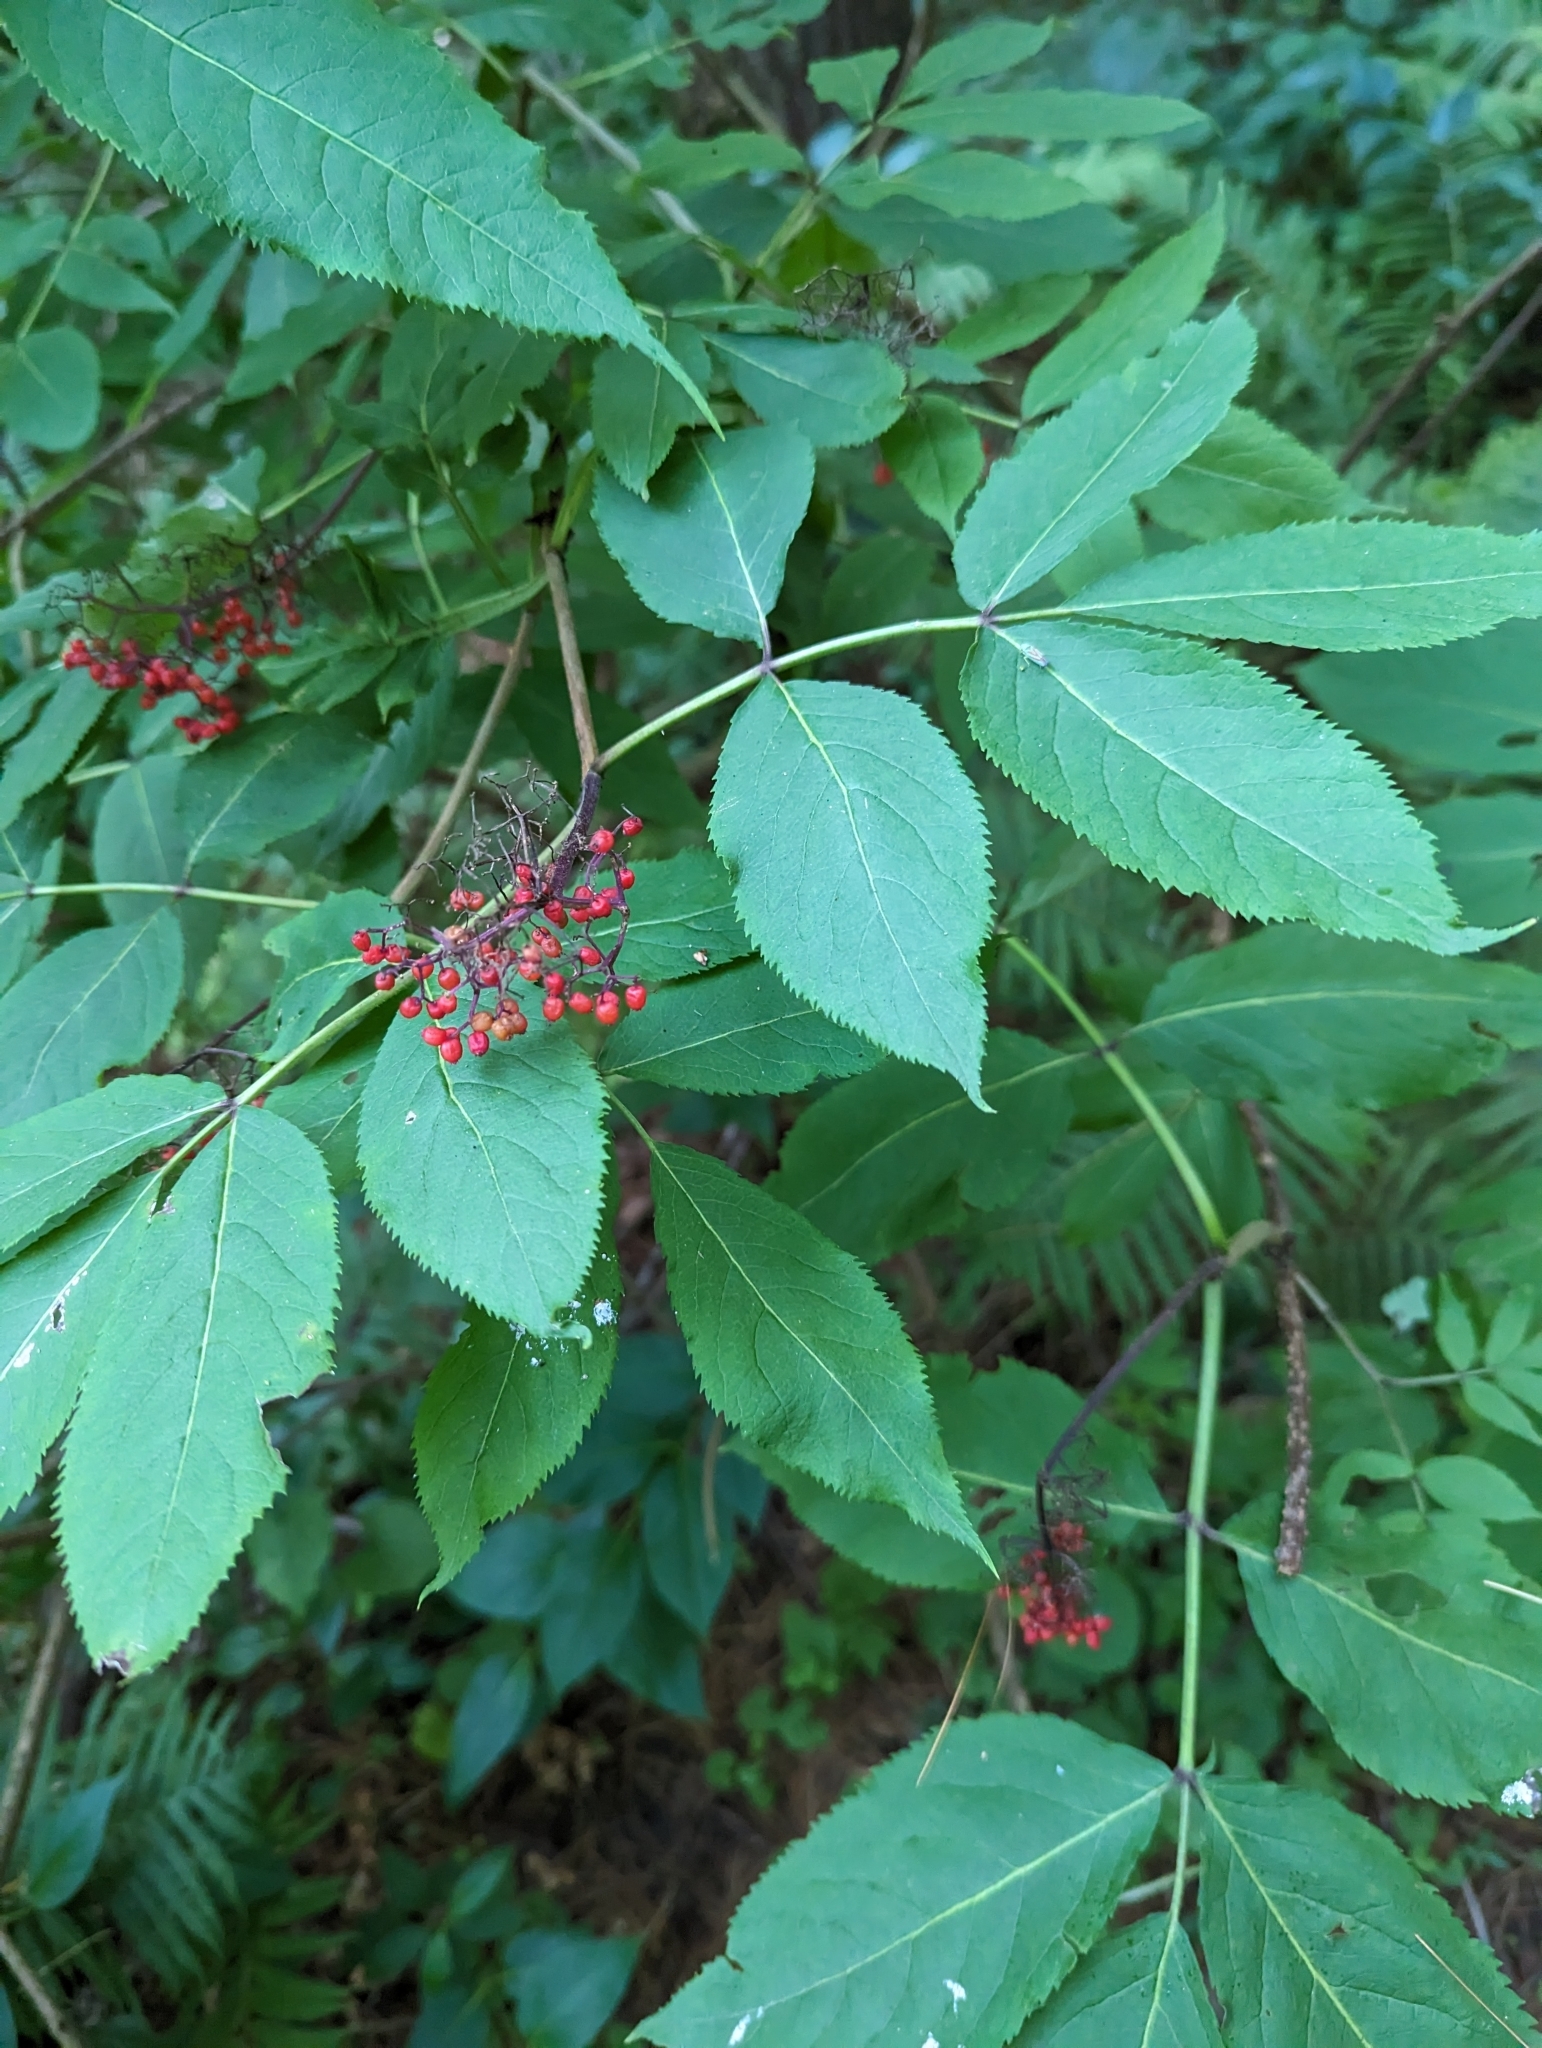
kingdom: Plantae
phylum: Tracheophyta
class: Magnoliopsida
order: Dipsacales
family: Viburnaceae
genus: Sambucus
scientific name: Sambucus racemosa
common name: Red-berried elder
